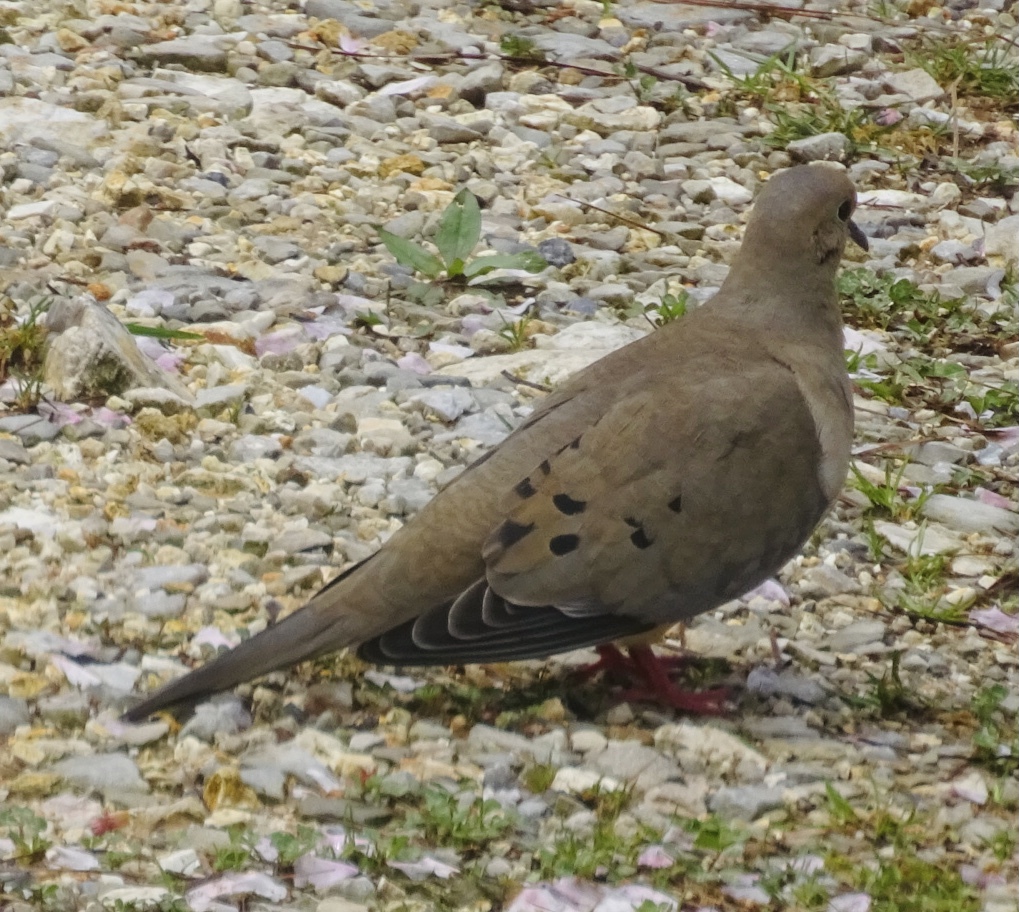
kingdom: Animalia
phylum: Chordata
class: Aves
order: Columbiformes
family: Columbidae
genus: Zenaida
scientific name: Zenaida macroura
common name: Mourning dove
